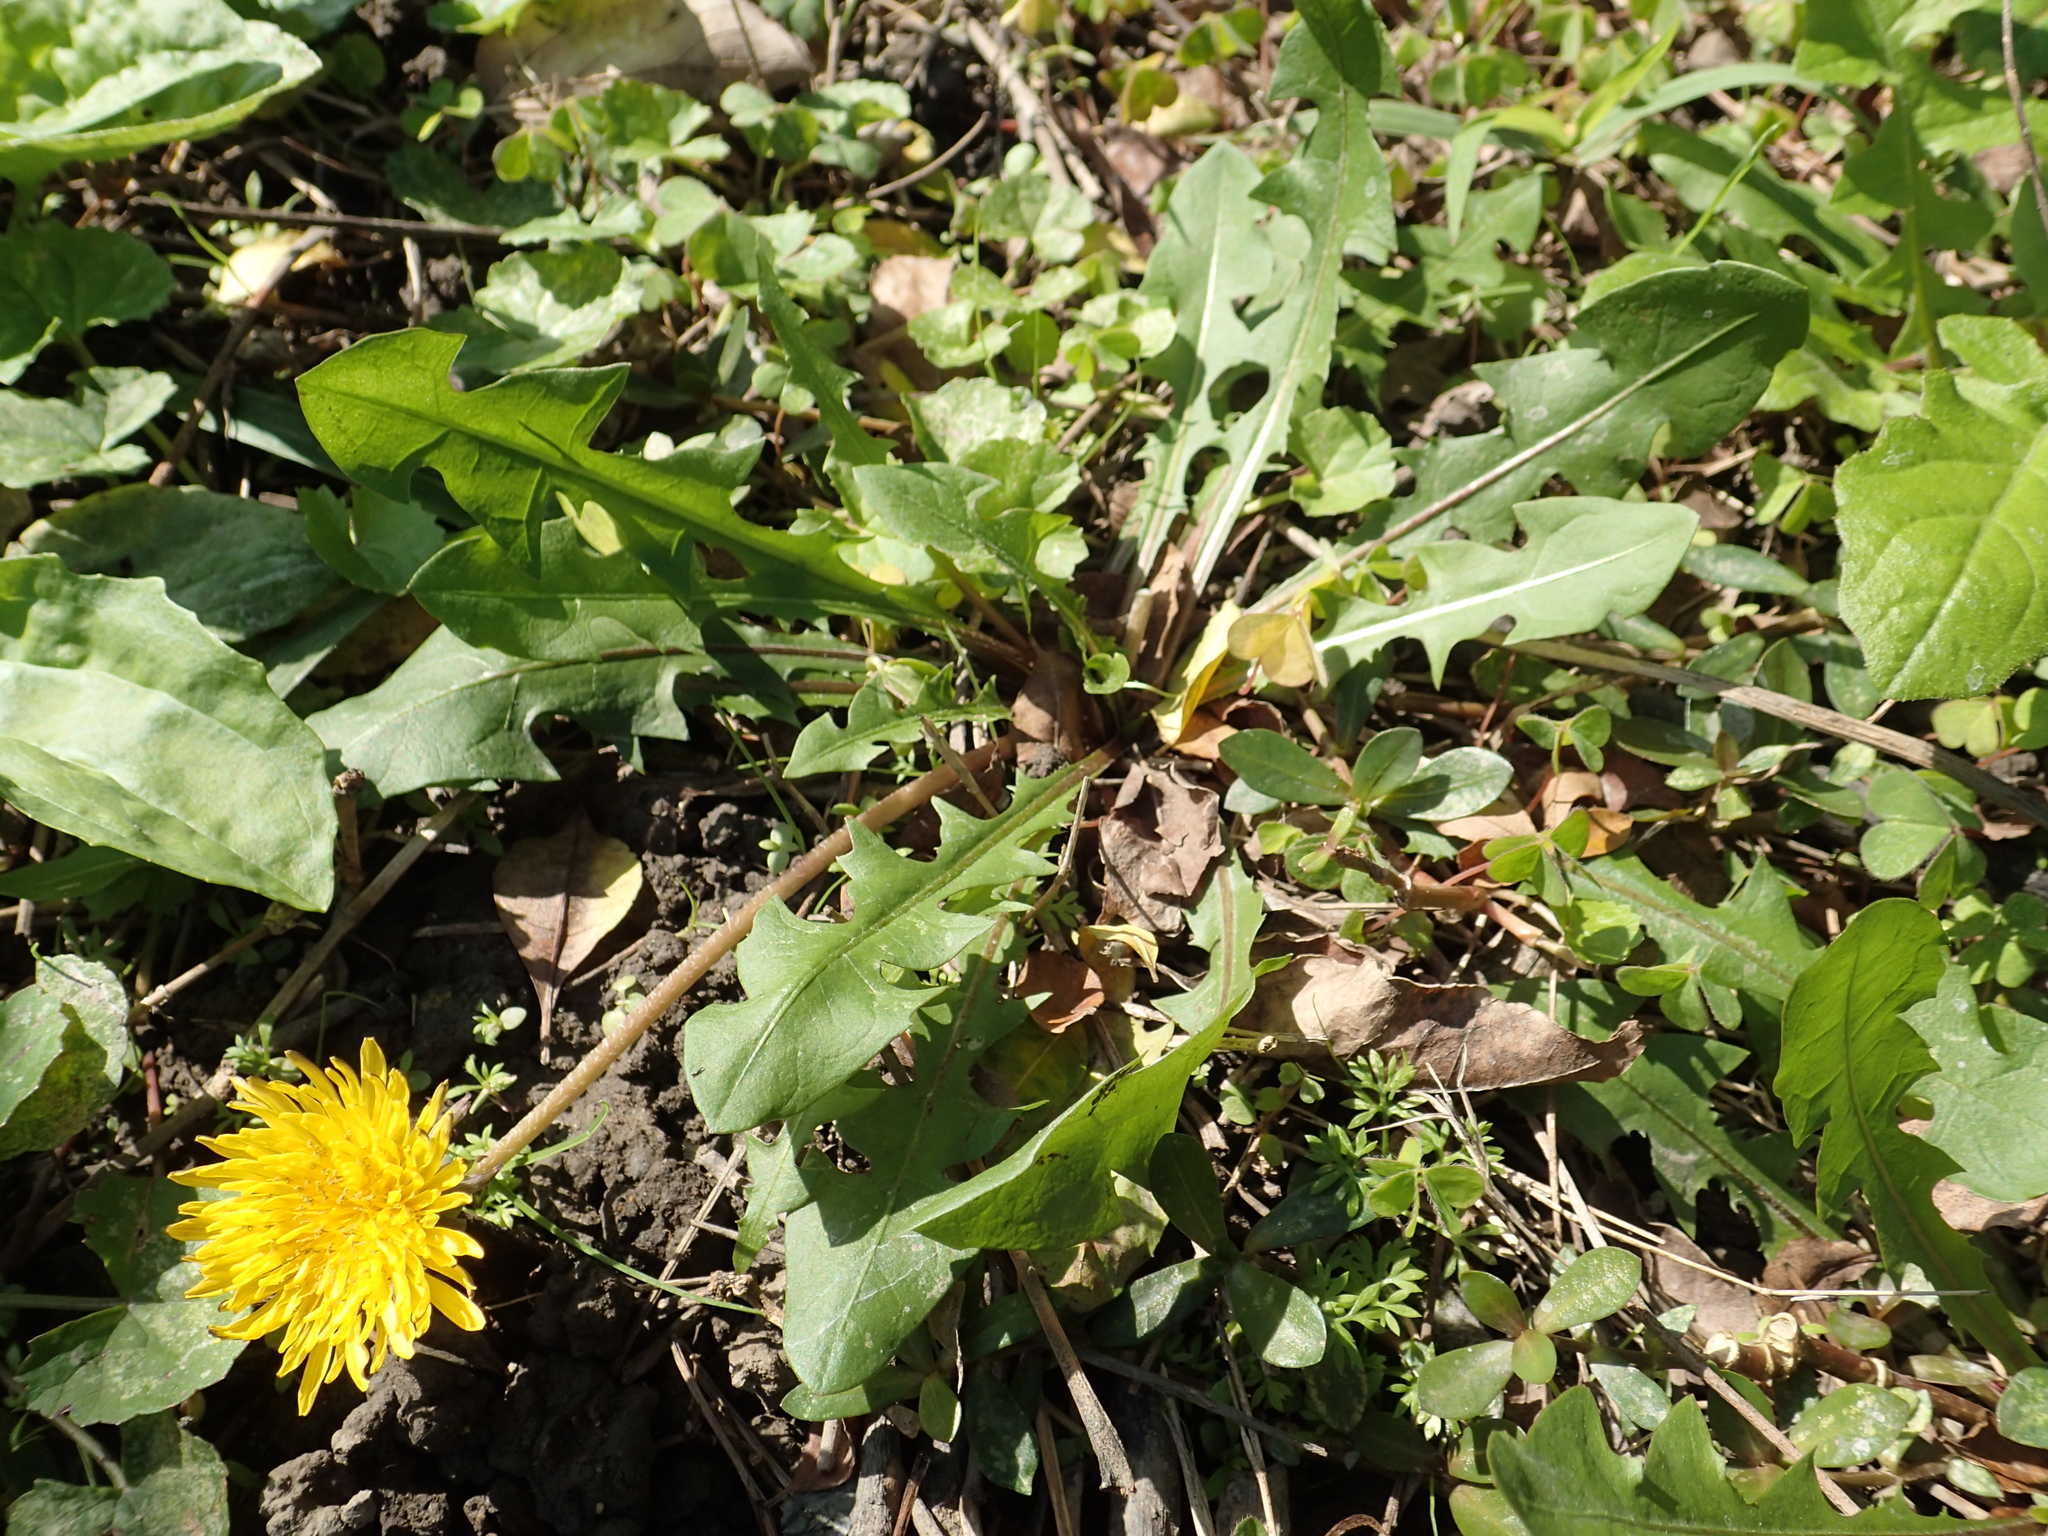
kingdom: Plantae
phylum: Tracheophyta
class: Magnoliopsida
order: Asterales
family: Asteraceae
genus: Taraxacum
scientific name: Taraxacum officinale
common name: Common dandelion
